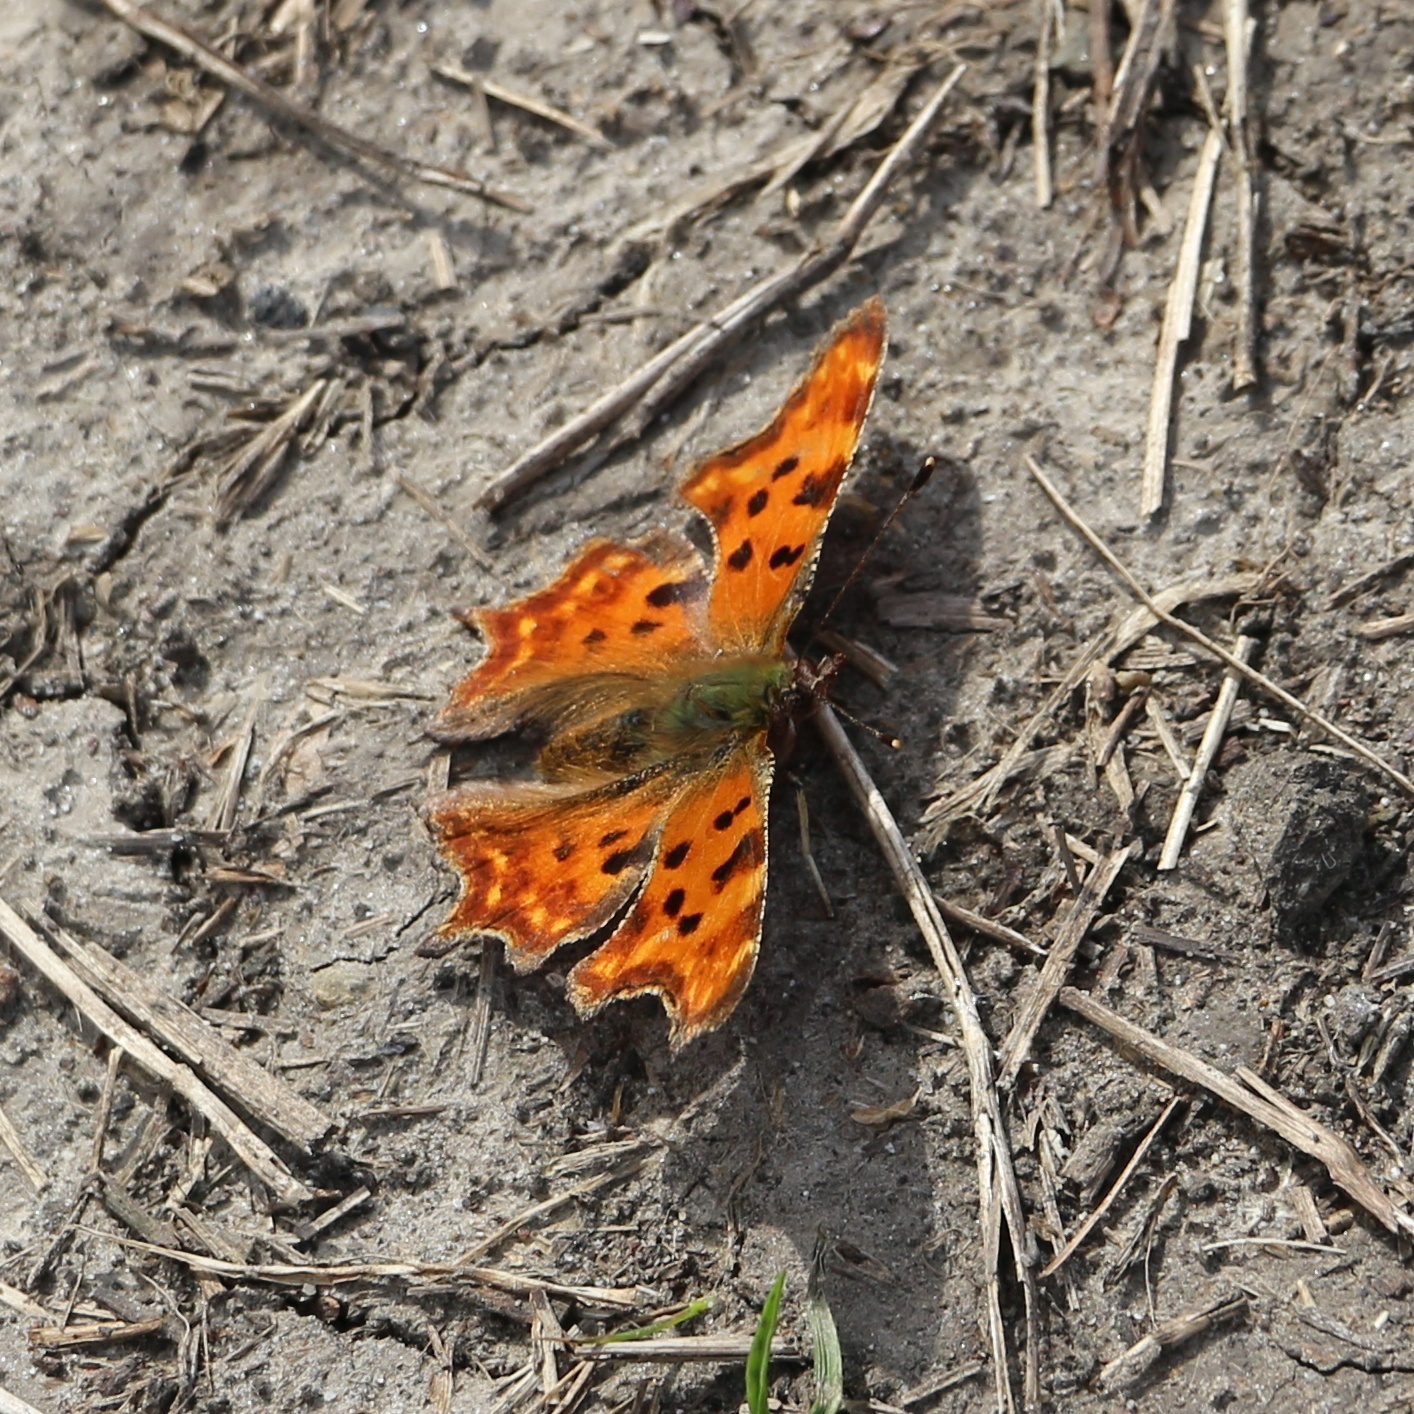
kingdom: Animalia
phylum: Arthropoda
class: Insecta
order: Lepidoptera
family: Nymphalidae
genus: Polygonia
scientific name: Polygonia c-album
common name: Comma
